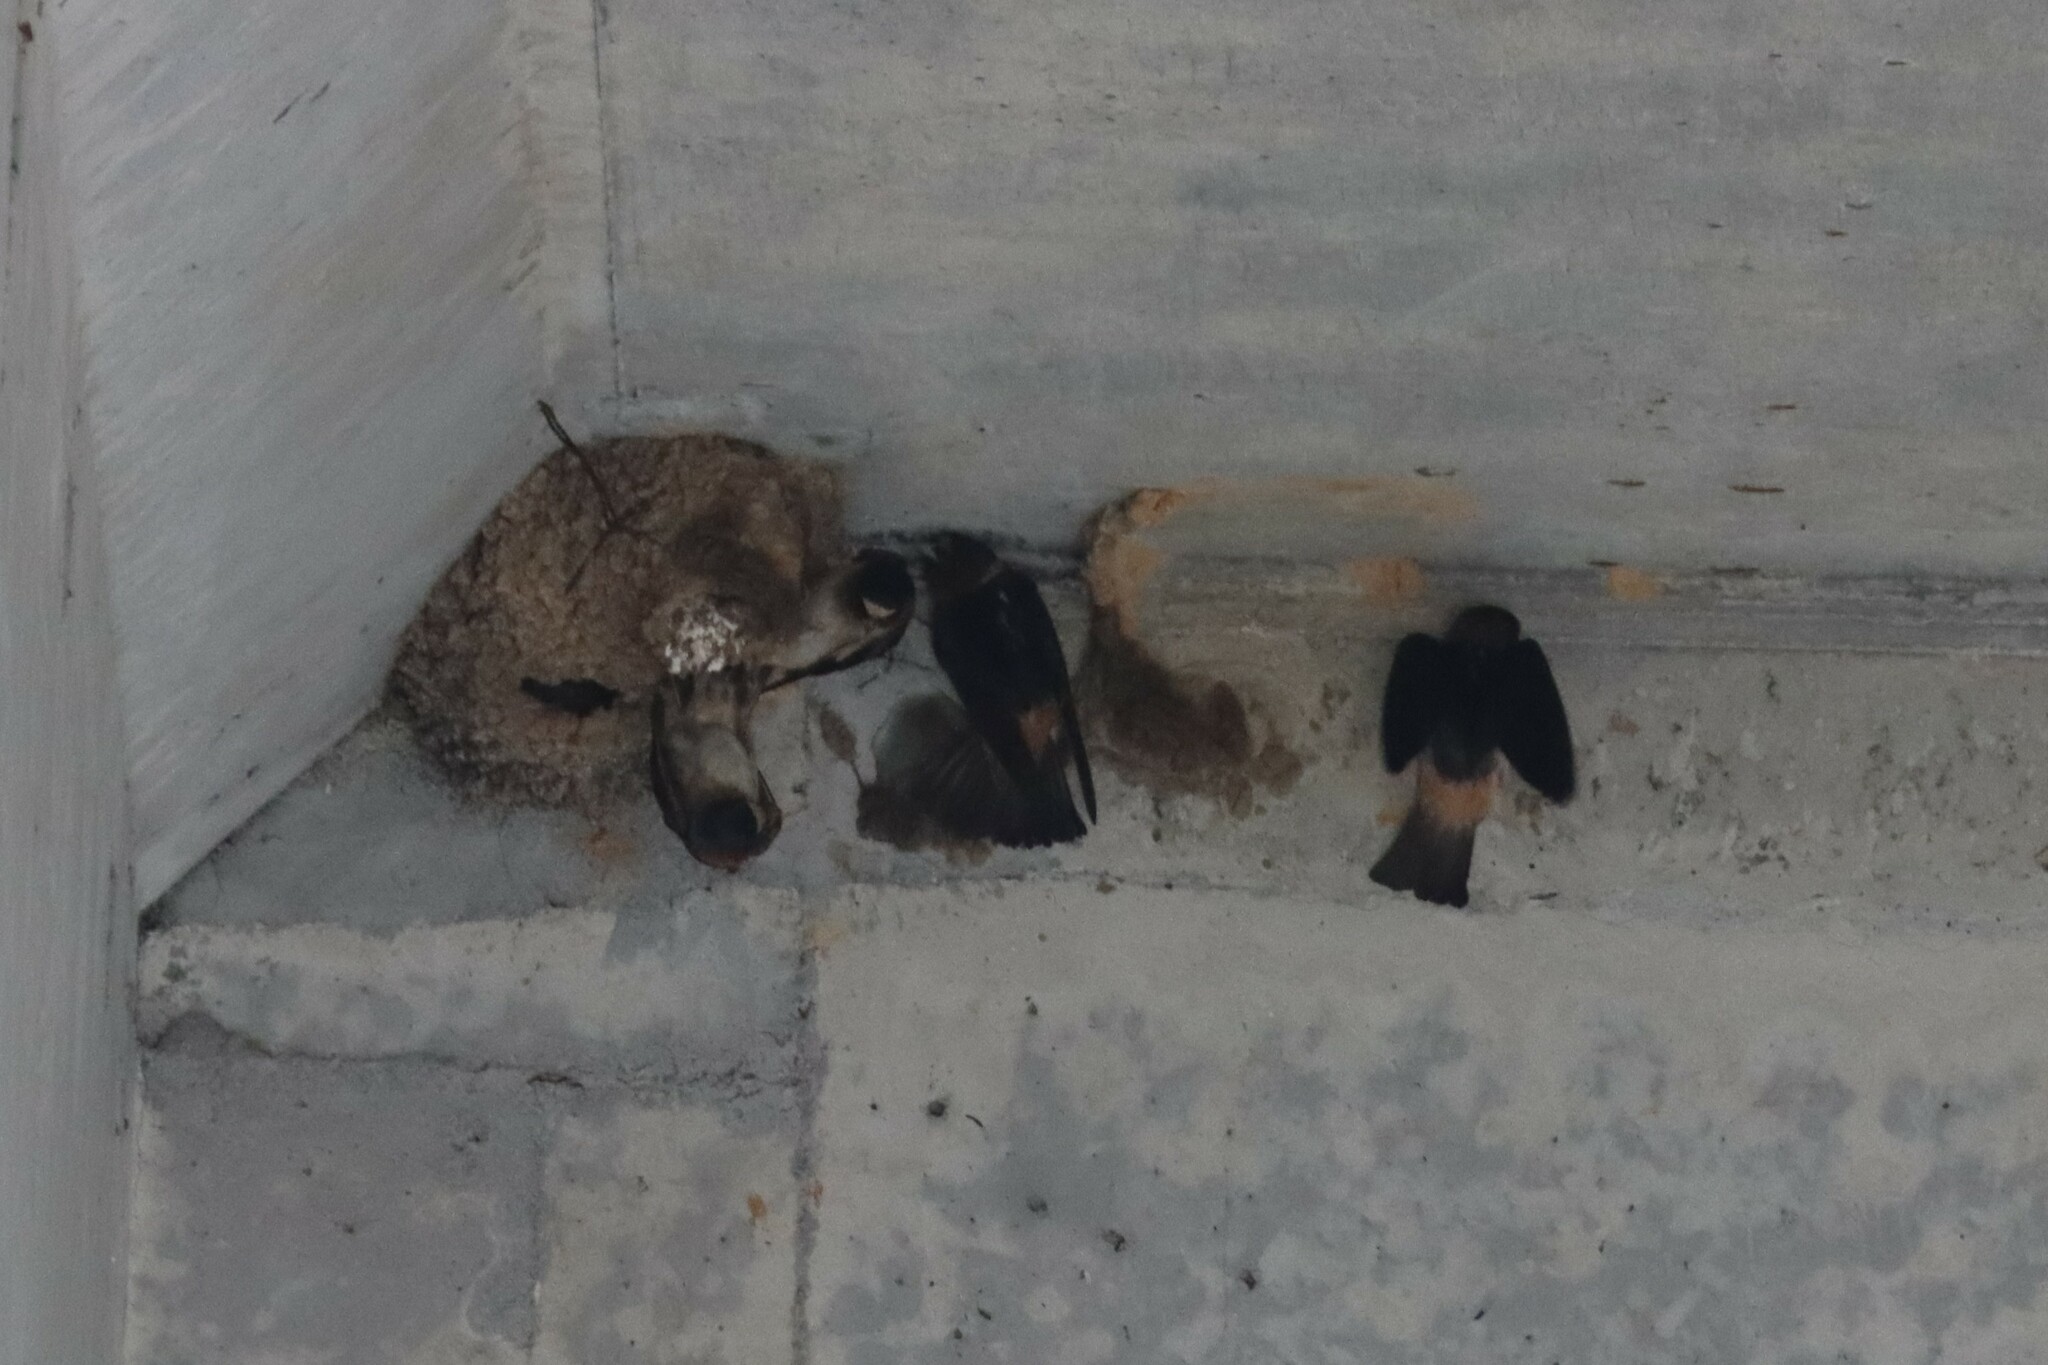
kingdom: Animalia
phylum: Chordata
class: Aves
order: Passeriformes
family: Hirundinidae
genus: Petrochelidon
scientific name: Petrochelidon pyrrhonota
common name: American cliff swallow
